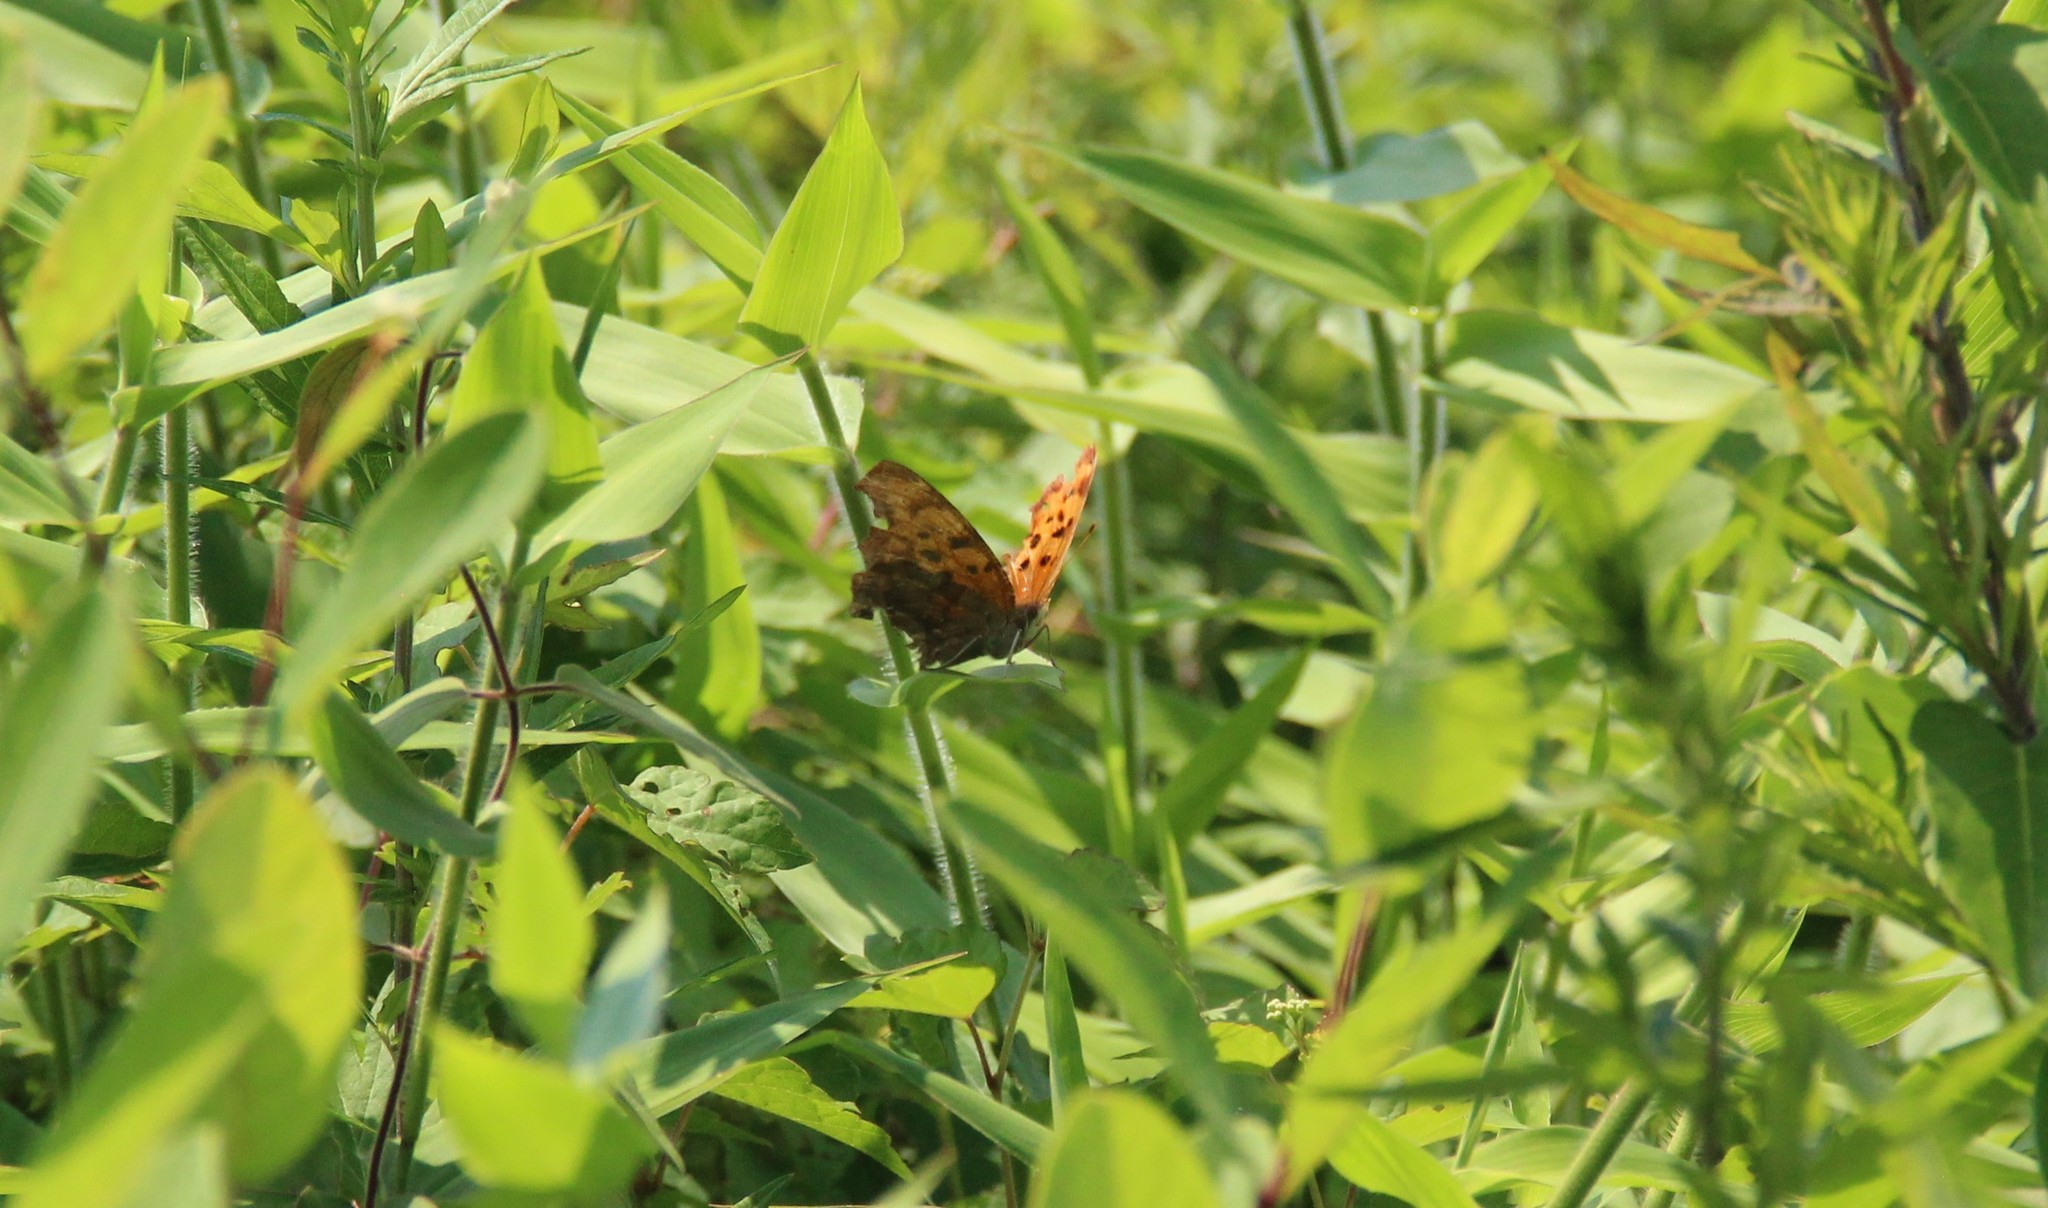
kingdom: Animalia
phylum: Arthropoda
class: Insecta
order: Lepidoptera
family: Nymphalidae
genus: Polygonia
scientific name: Polygonia interrogationis
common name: Question mark
